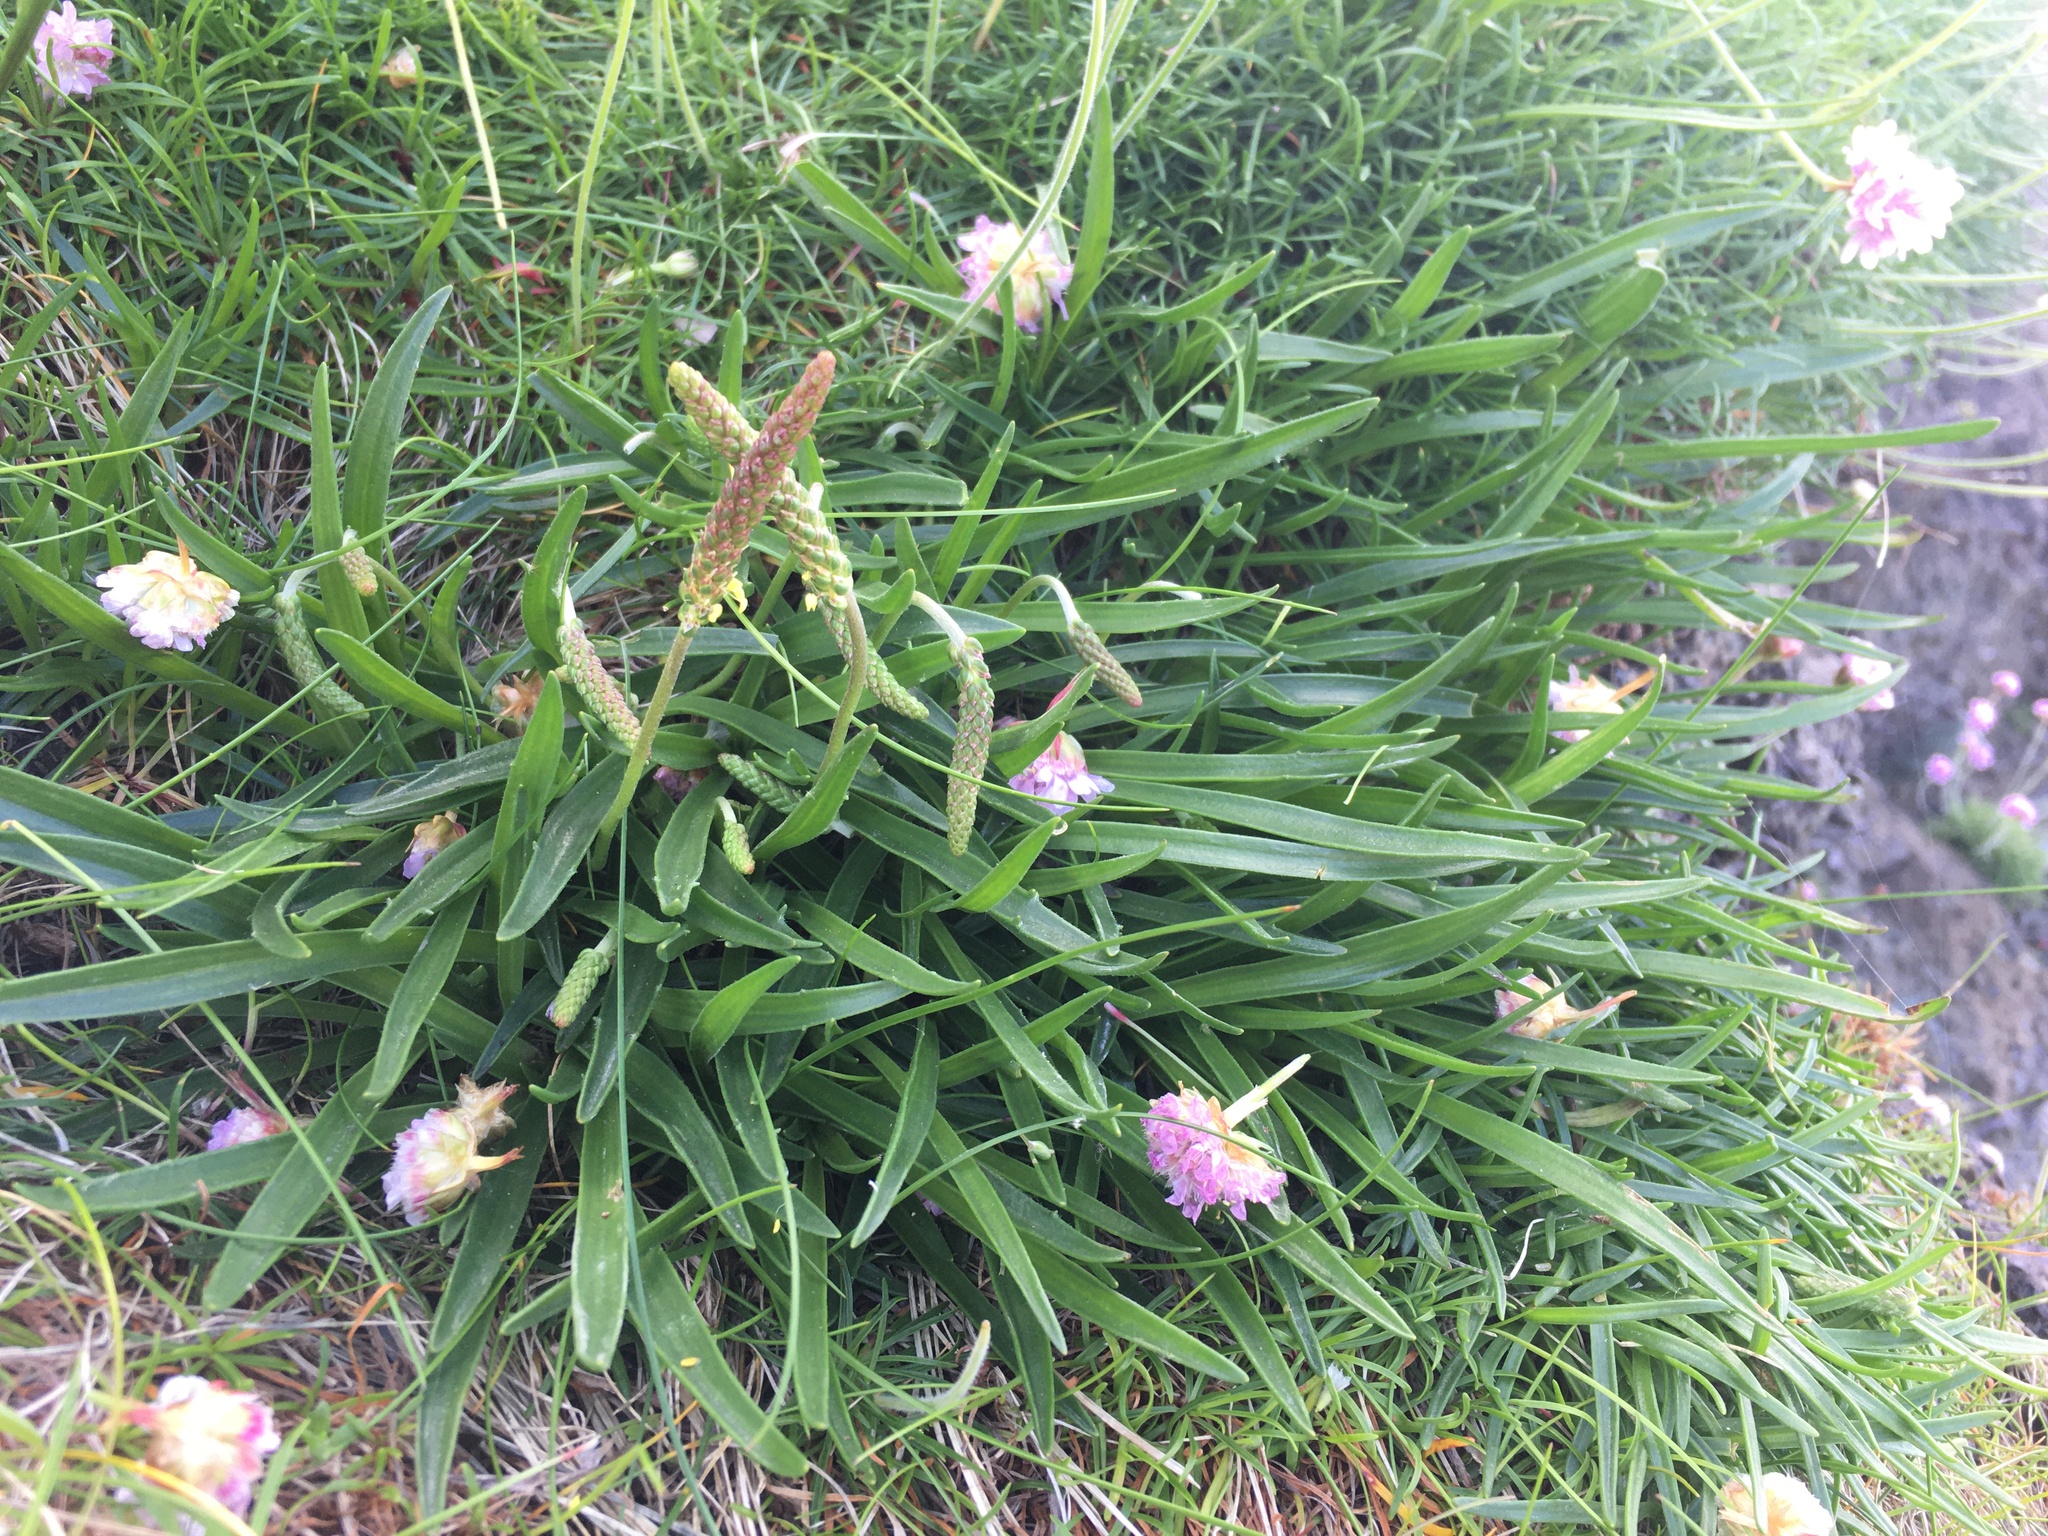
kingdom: Plantae
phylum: Tracheophyta
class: Magnoliopsida
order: Lamiales
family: Plantaginaceae
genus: Plantago
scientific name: Plantago maritima
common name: Sea plantain
